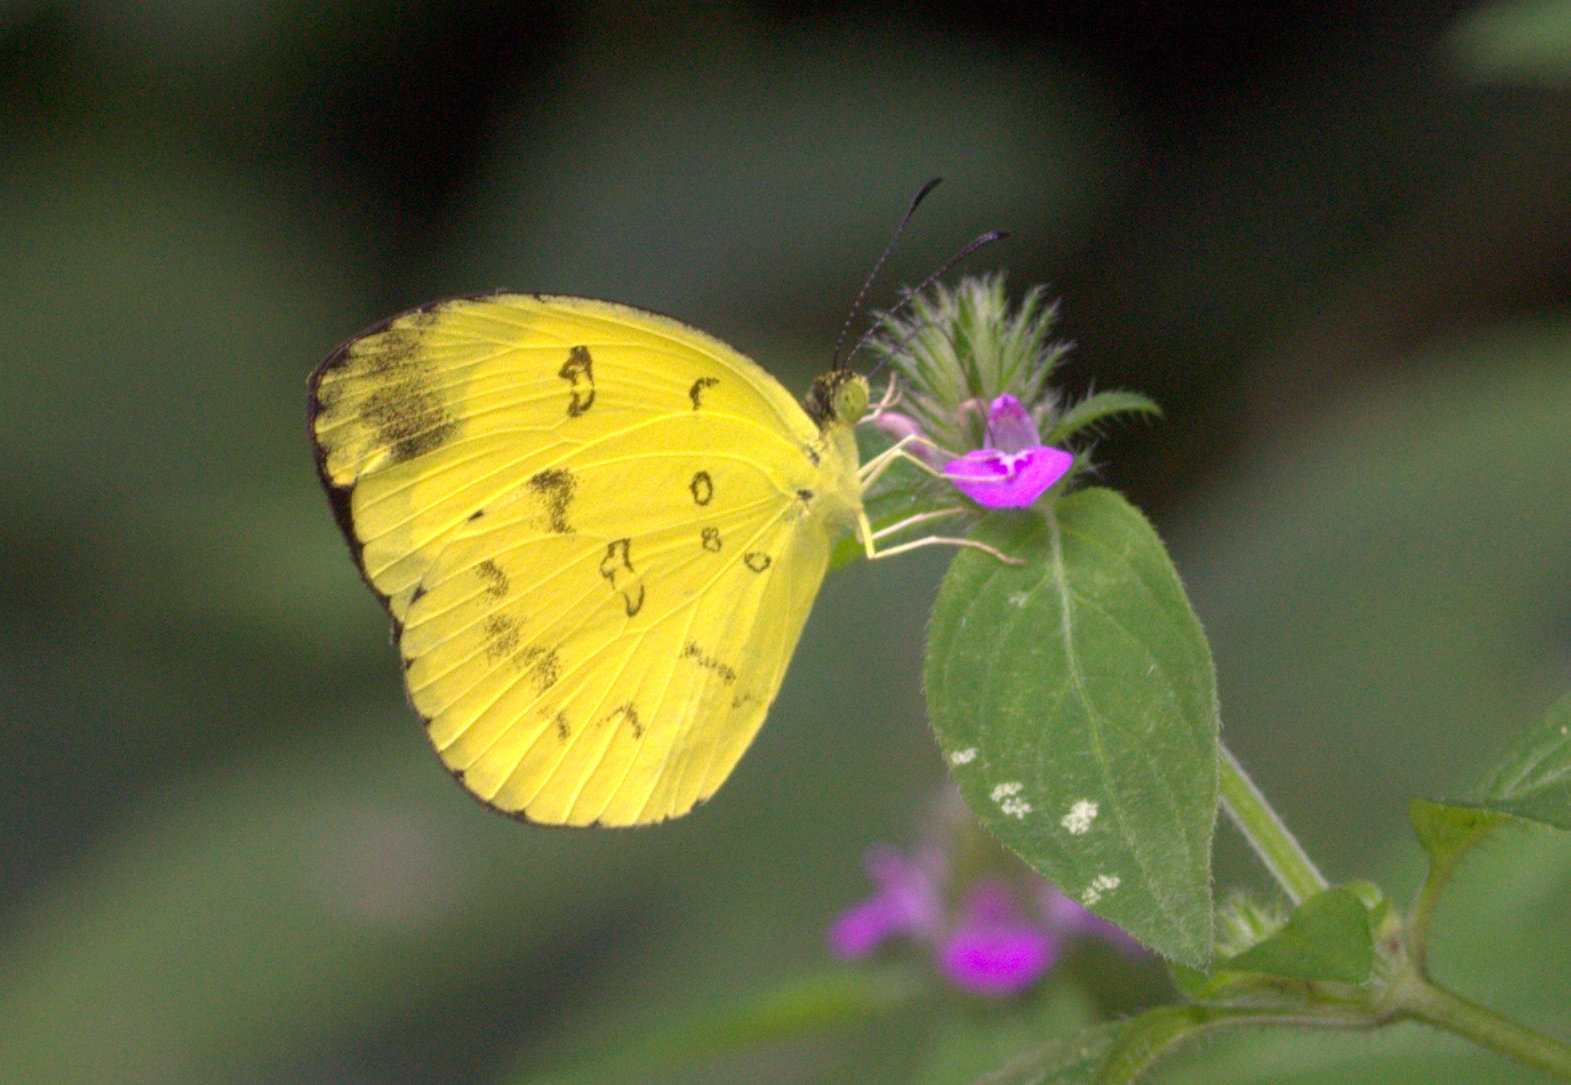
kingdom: Animalia
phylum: Arthropoda
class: Insecta
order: Lepidoptera
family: Pieridae
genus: Eurema
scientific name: Eurema nilgiriensis
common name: Nilgiri grass yellow
